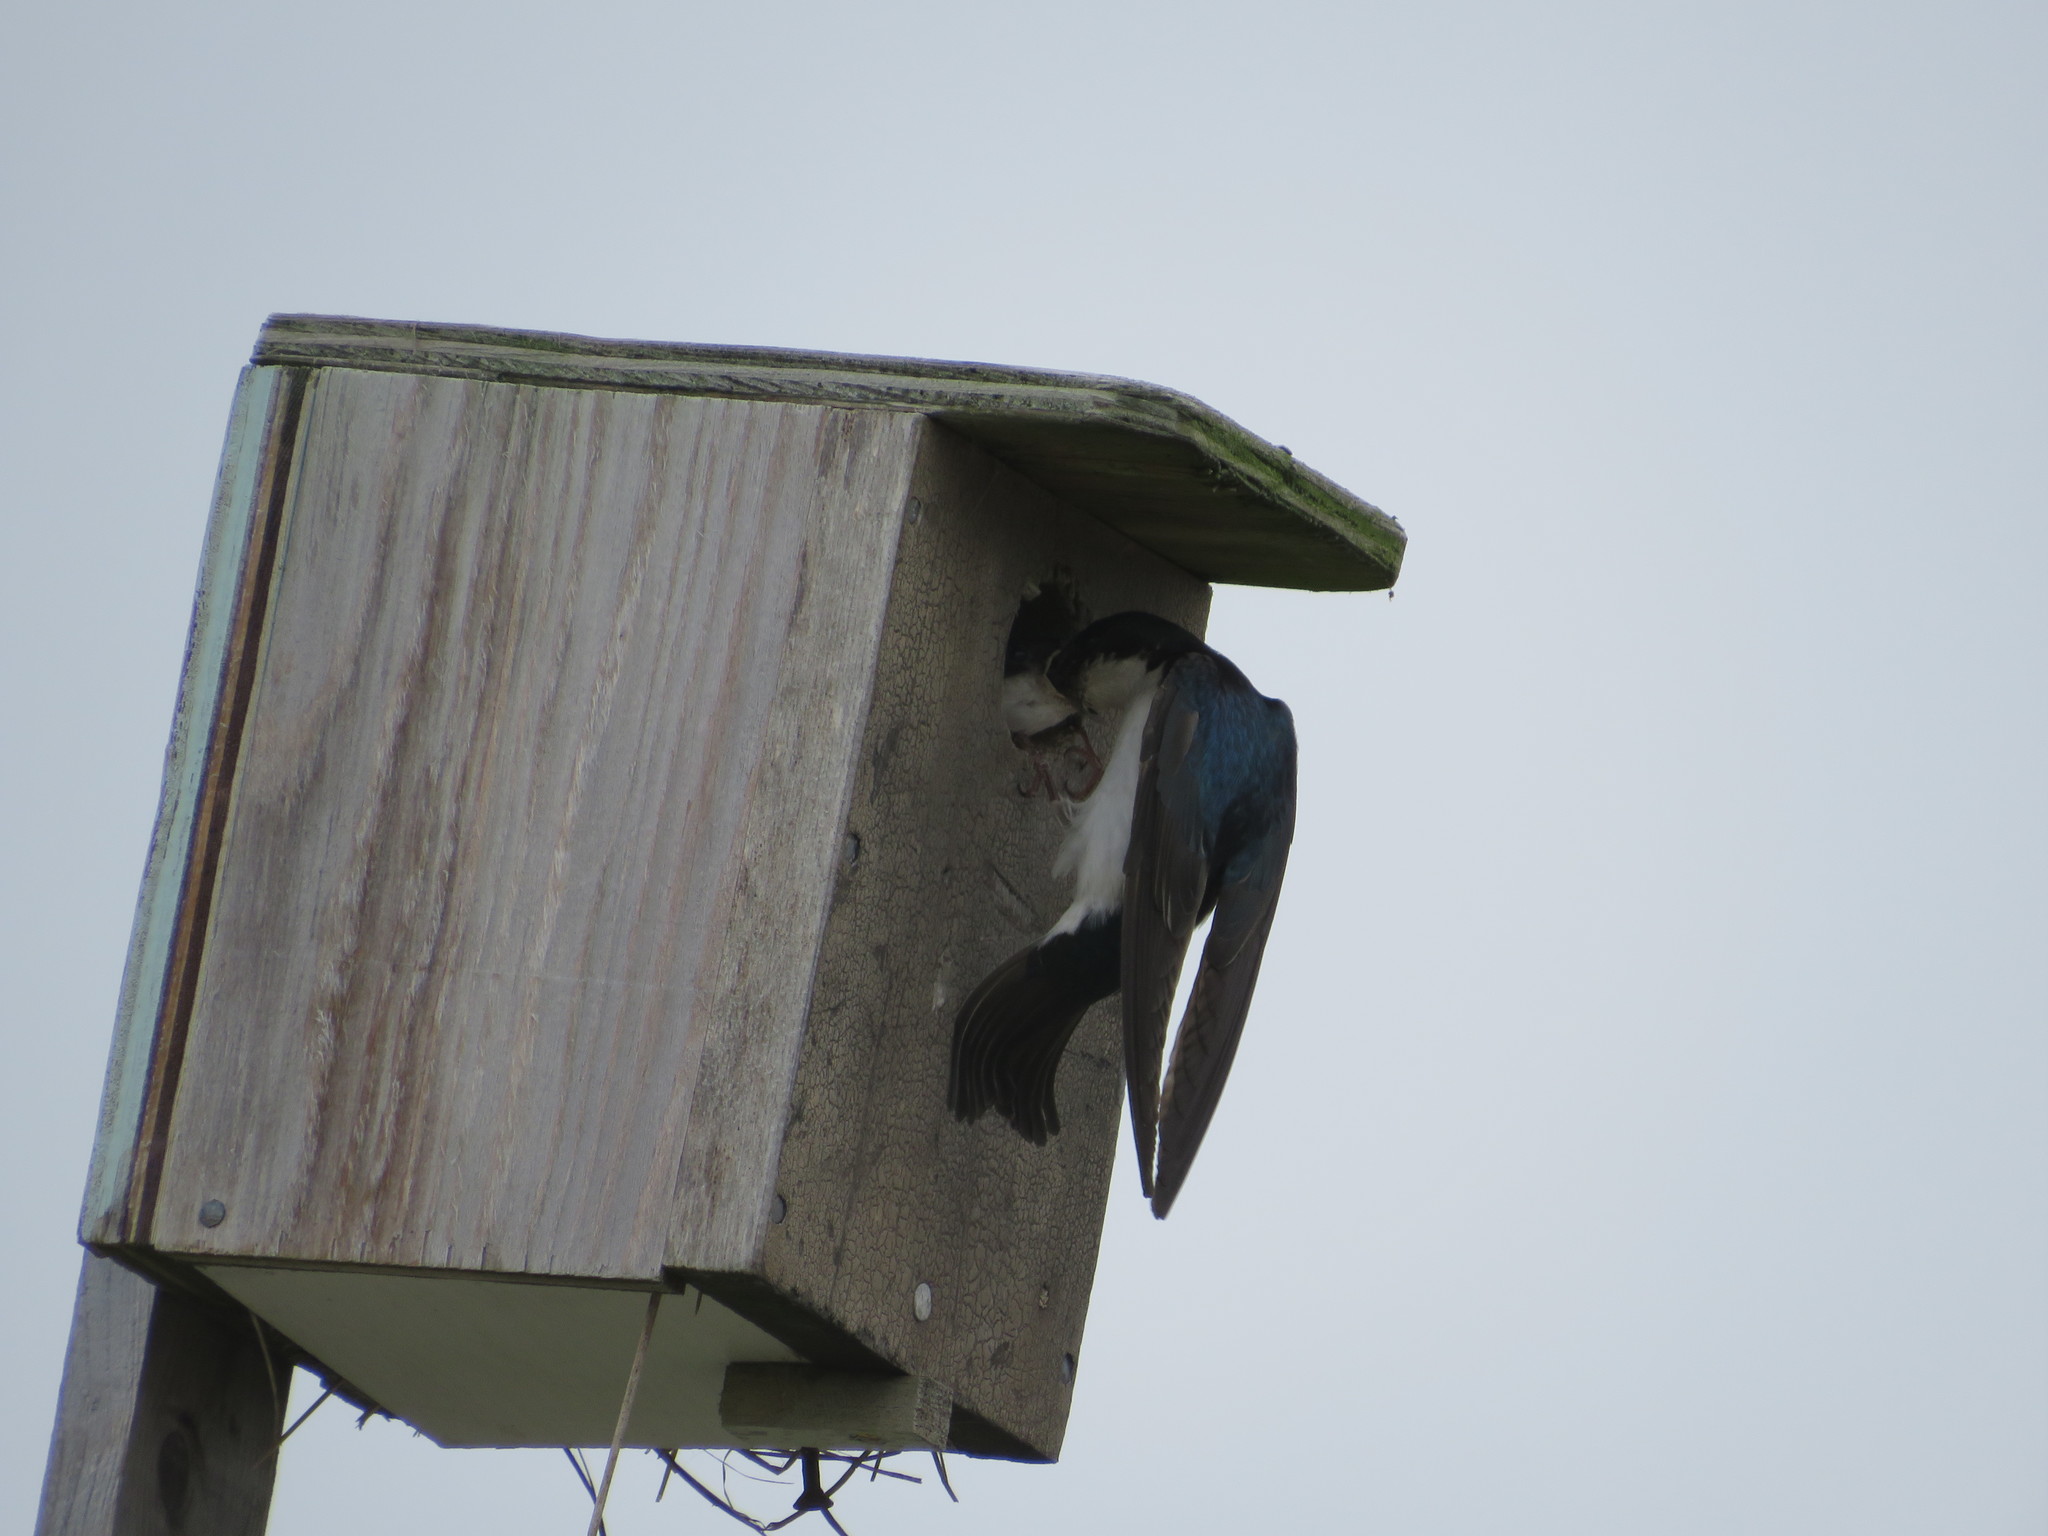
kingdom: Animalia
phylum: Chordata
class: Aves
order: Passeriformes
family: Hirundinidae
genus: Tachycineta
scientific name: Tachycineta bicolor
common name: Tree swallow
